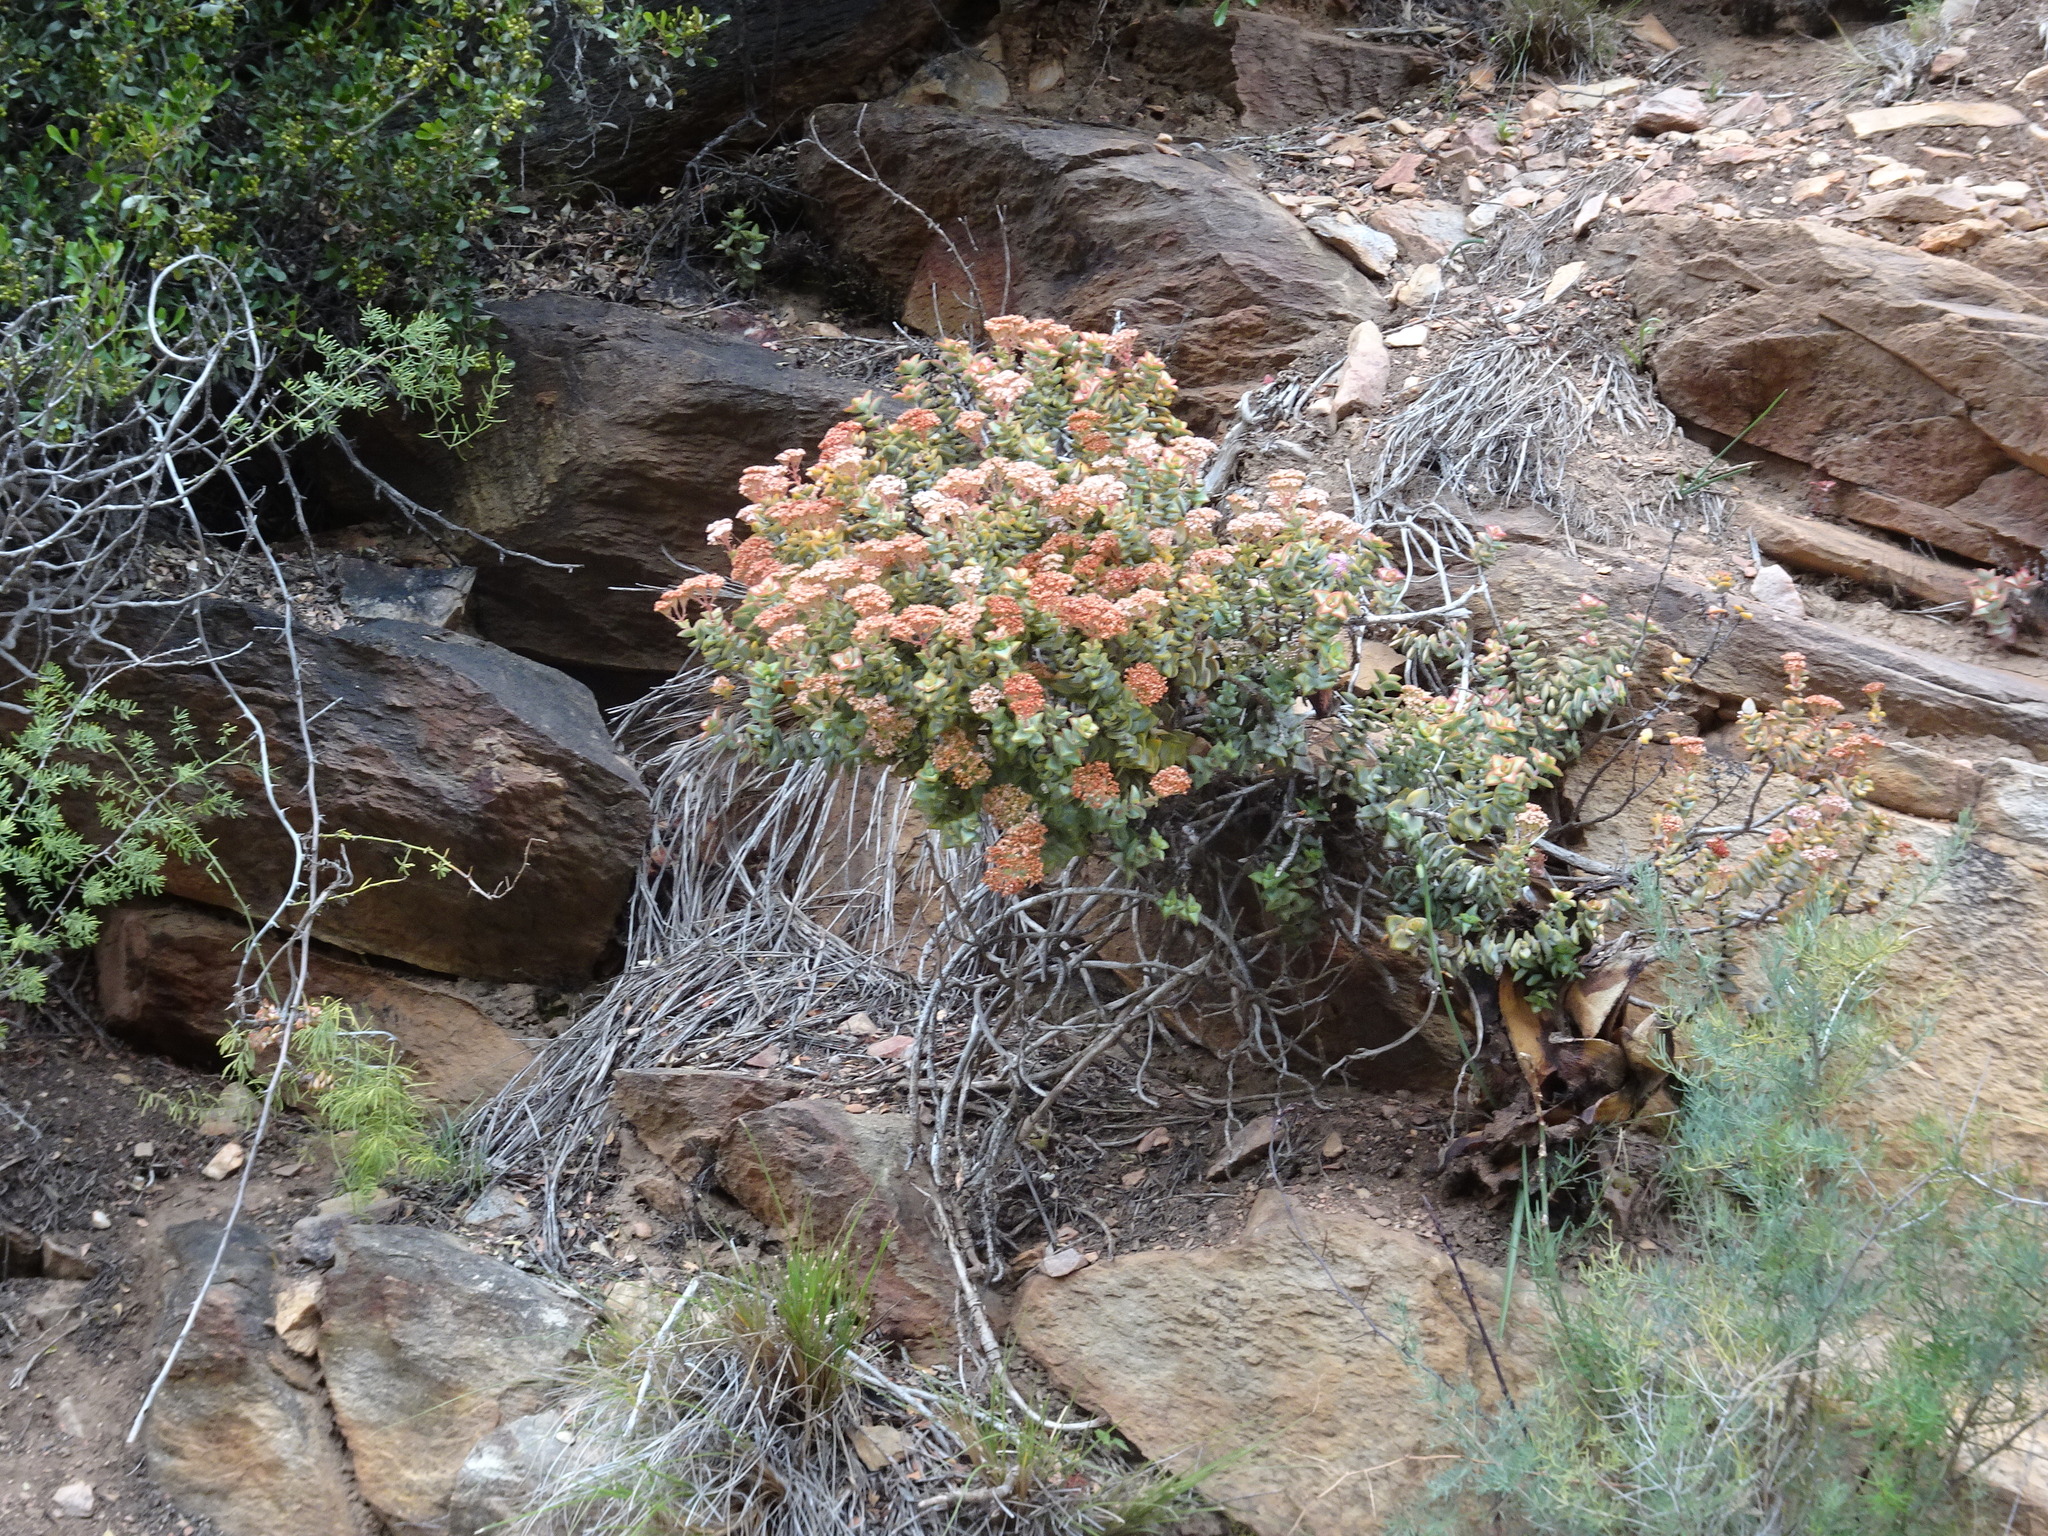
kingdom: Plantae
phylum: Tracheophyta
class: Magnoliopsida
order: Saxifragales
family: Crassulaceae
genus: Crassula
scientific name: Crassula rupestris
